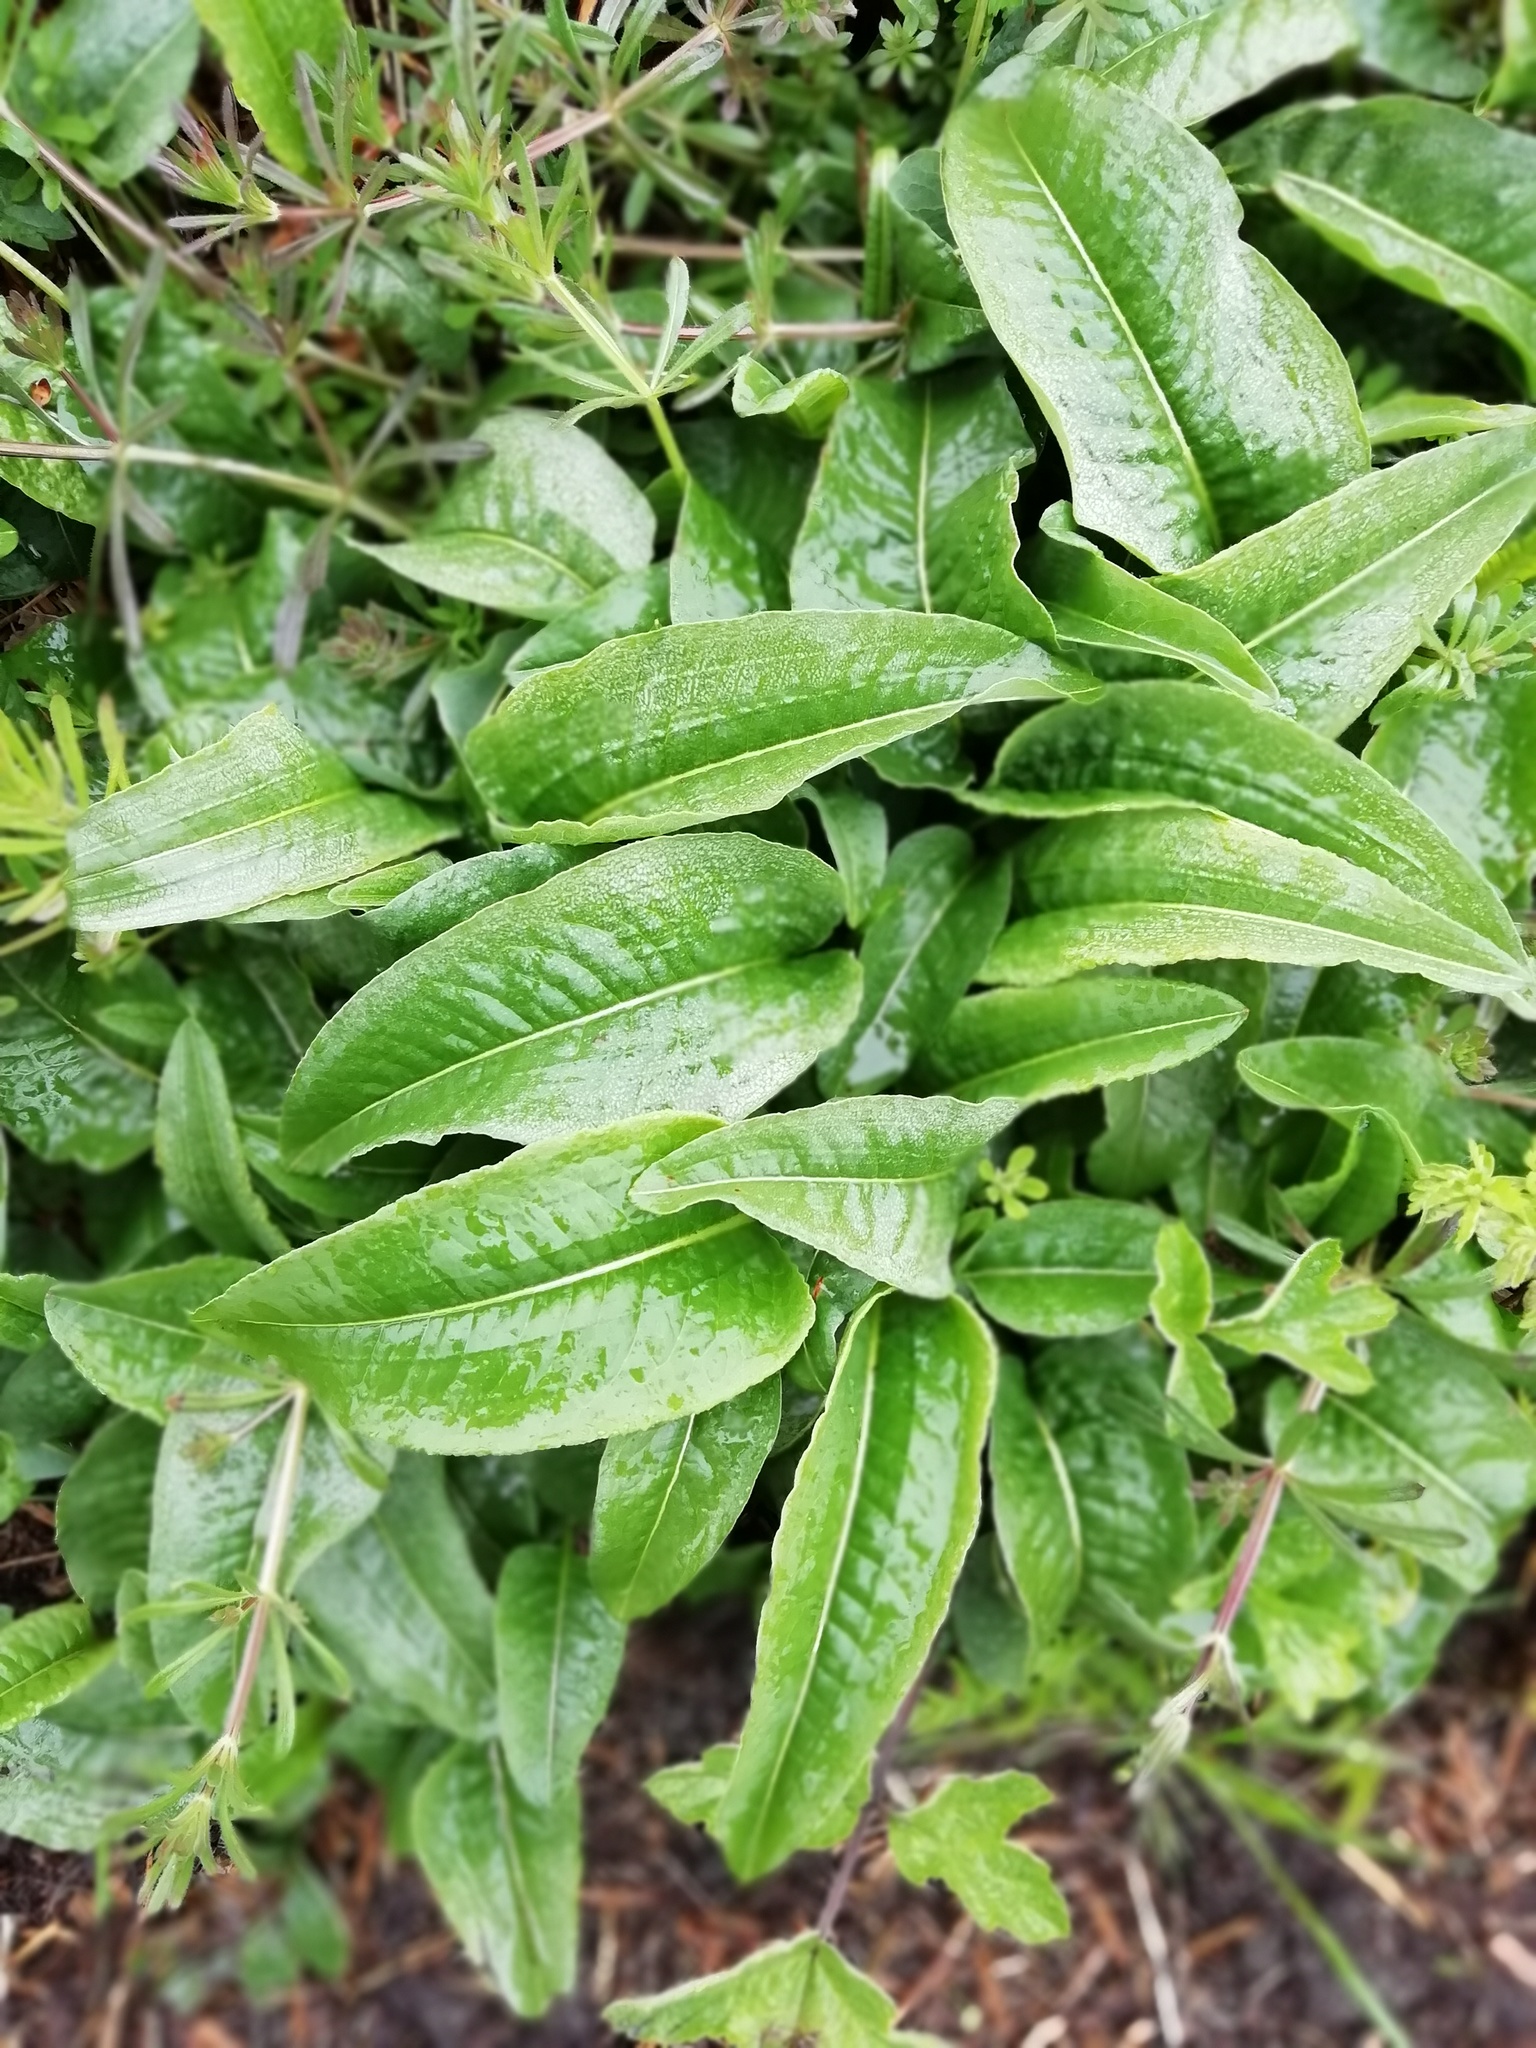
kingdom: Plantae
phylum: Tracheophyta
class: Magnoliopsida
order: Caryophyllales
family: Polygonaceae
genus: Bistorta
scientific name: Bistorta officinalis
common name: Common bistort
